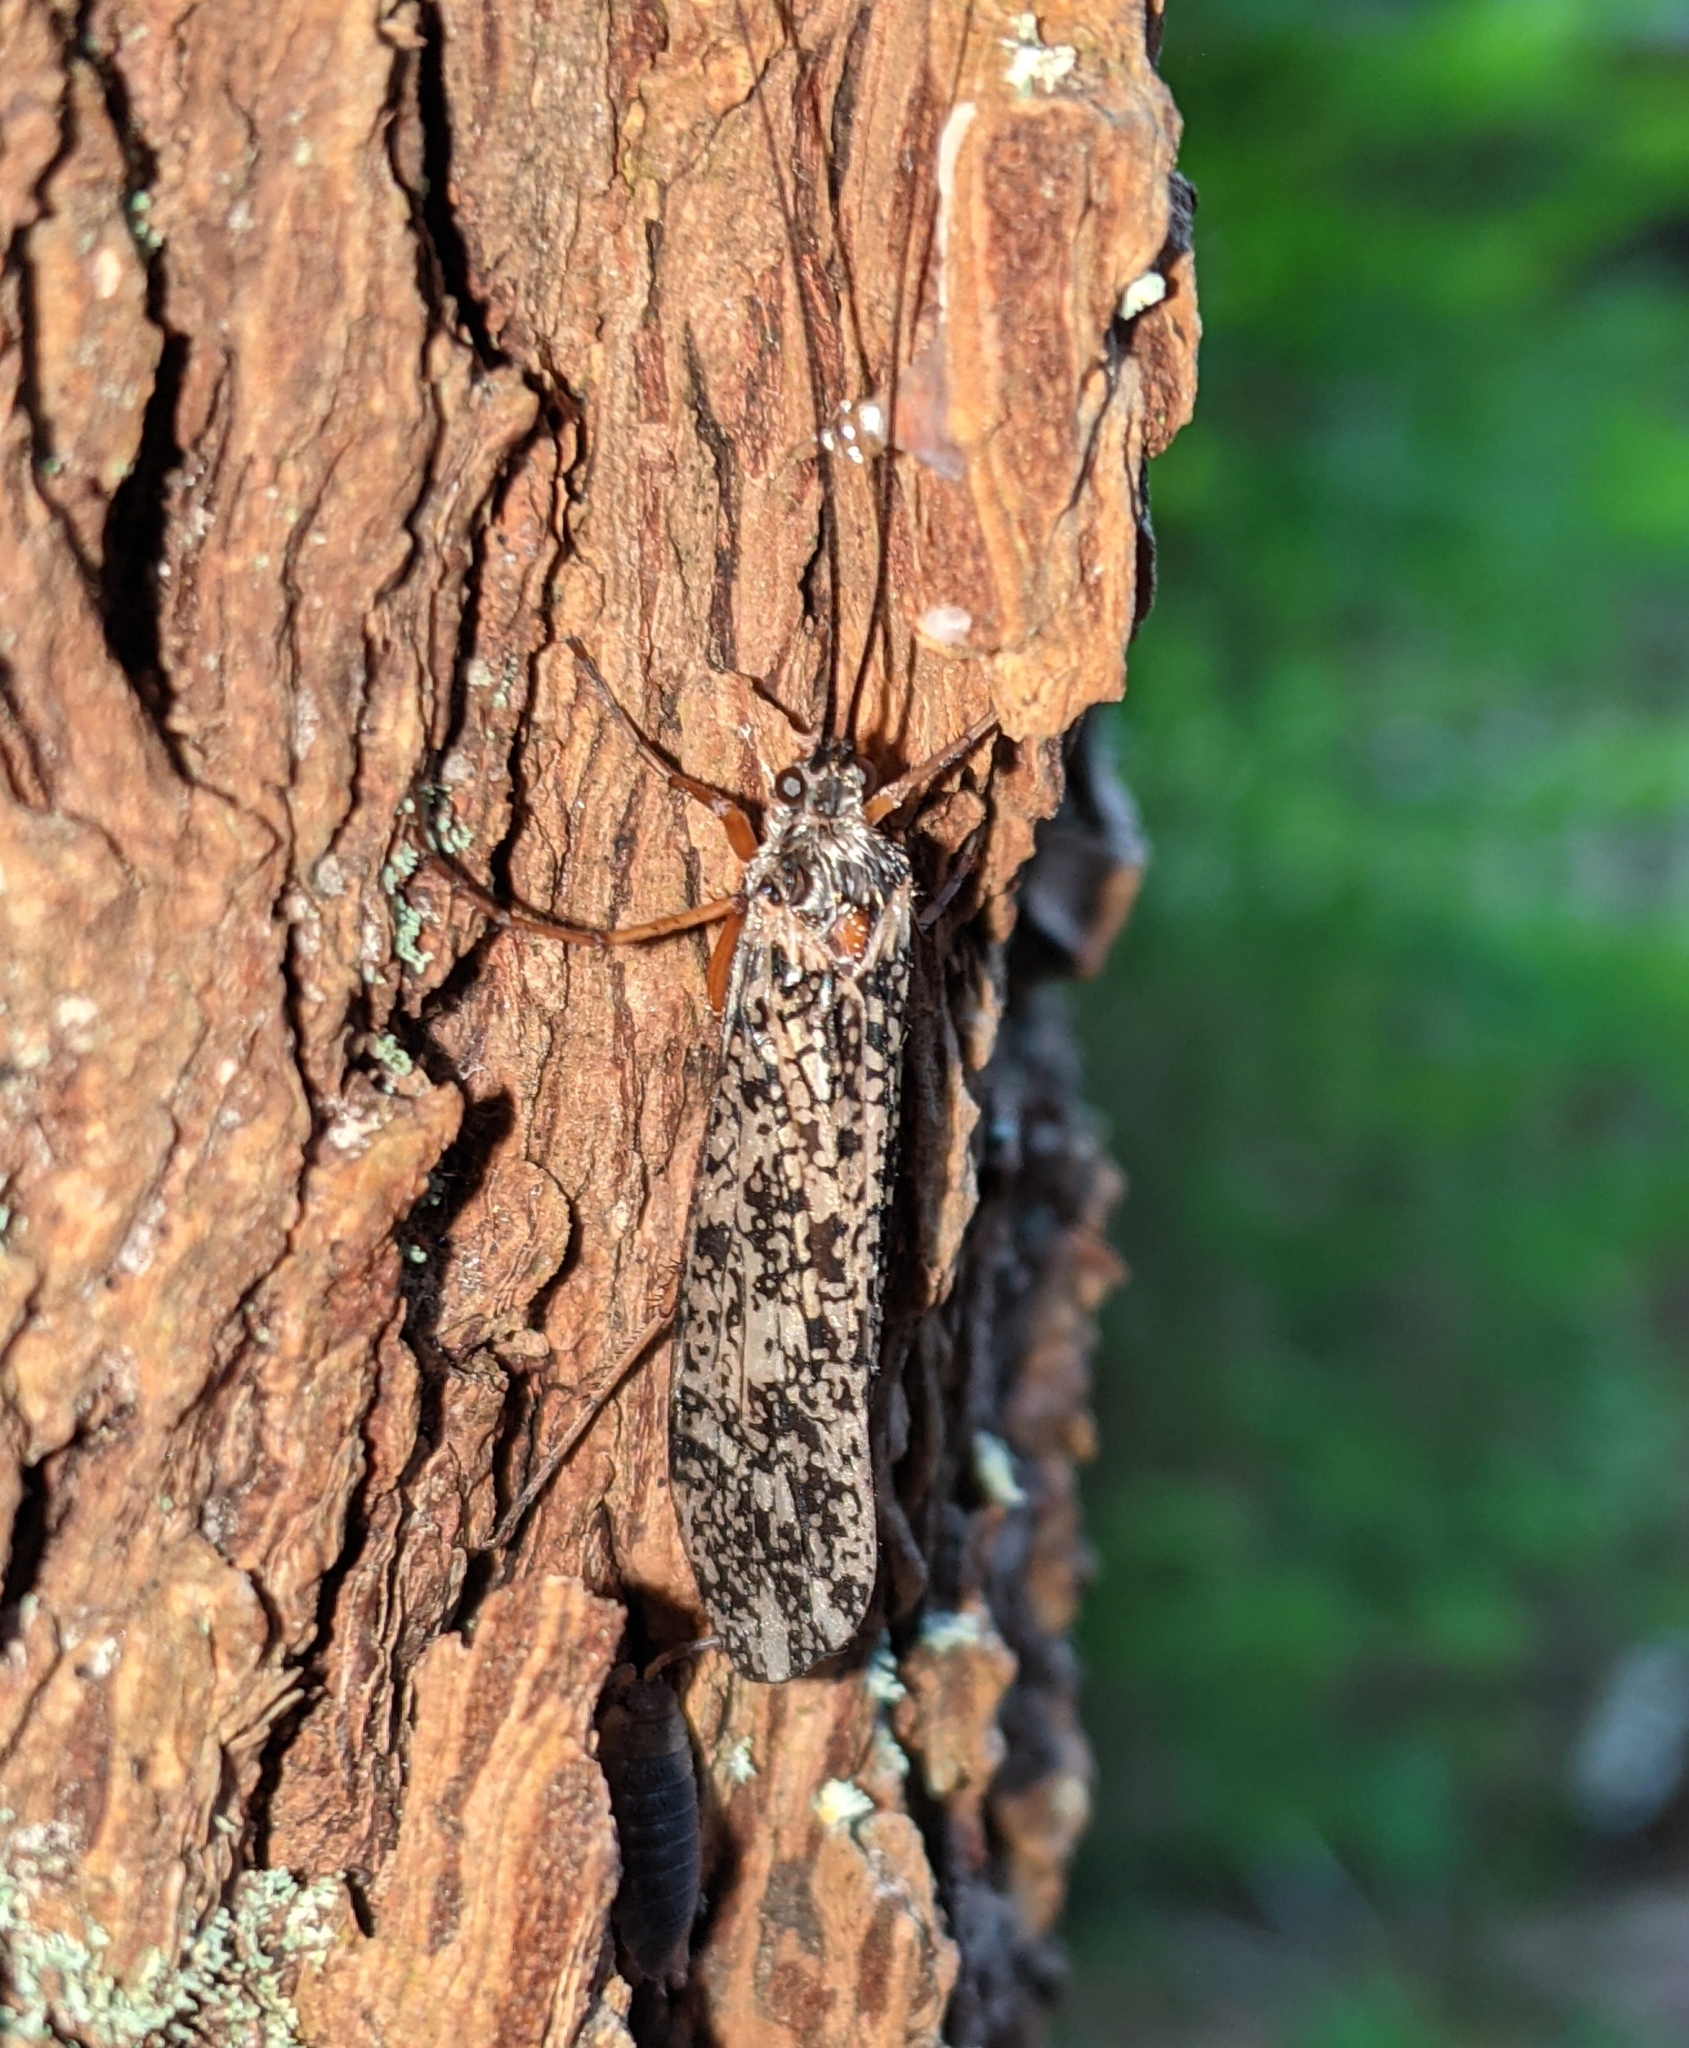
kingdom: Animalia
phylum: Arthropoda
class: Insecta
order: Trichoptera
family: Limnephilidae
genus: Clistoronia
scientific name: Clistoronia magnifica
